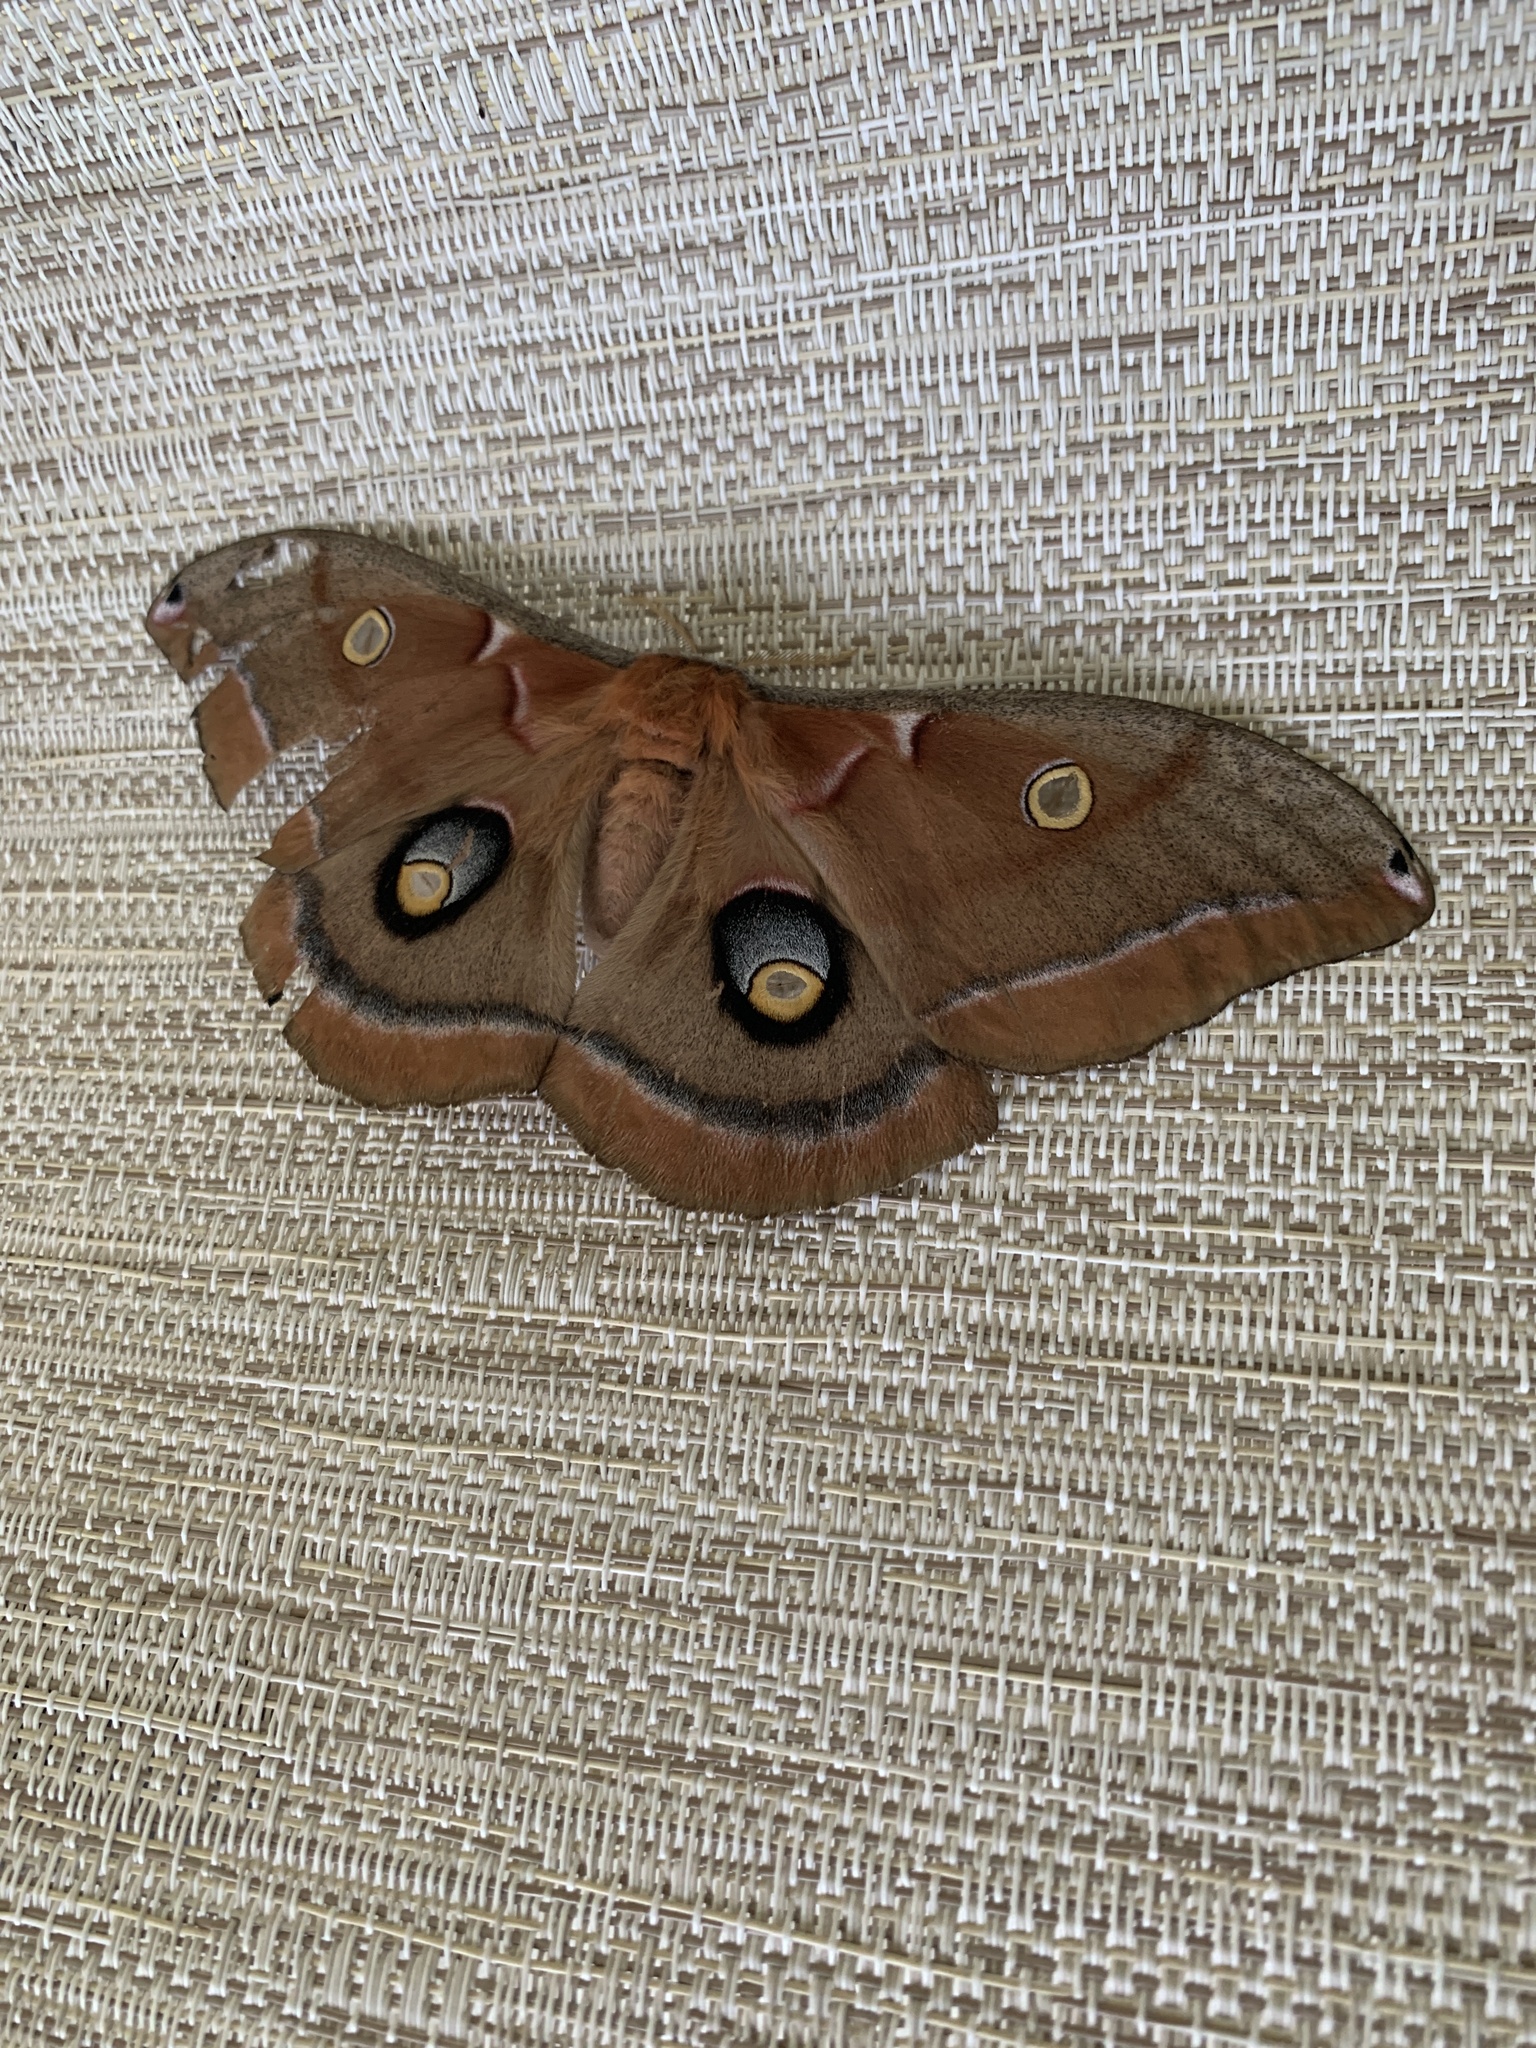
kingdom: Animalia
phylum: Arthropoda
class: Insecta
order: Lepidoptera
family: Saturniidae
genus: Antheraea
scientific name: Antheraea polyphemus
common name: Polyphemus moth
